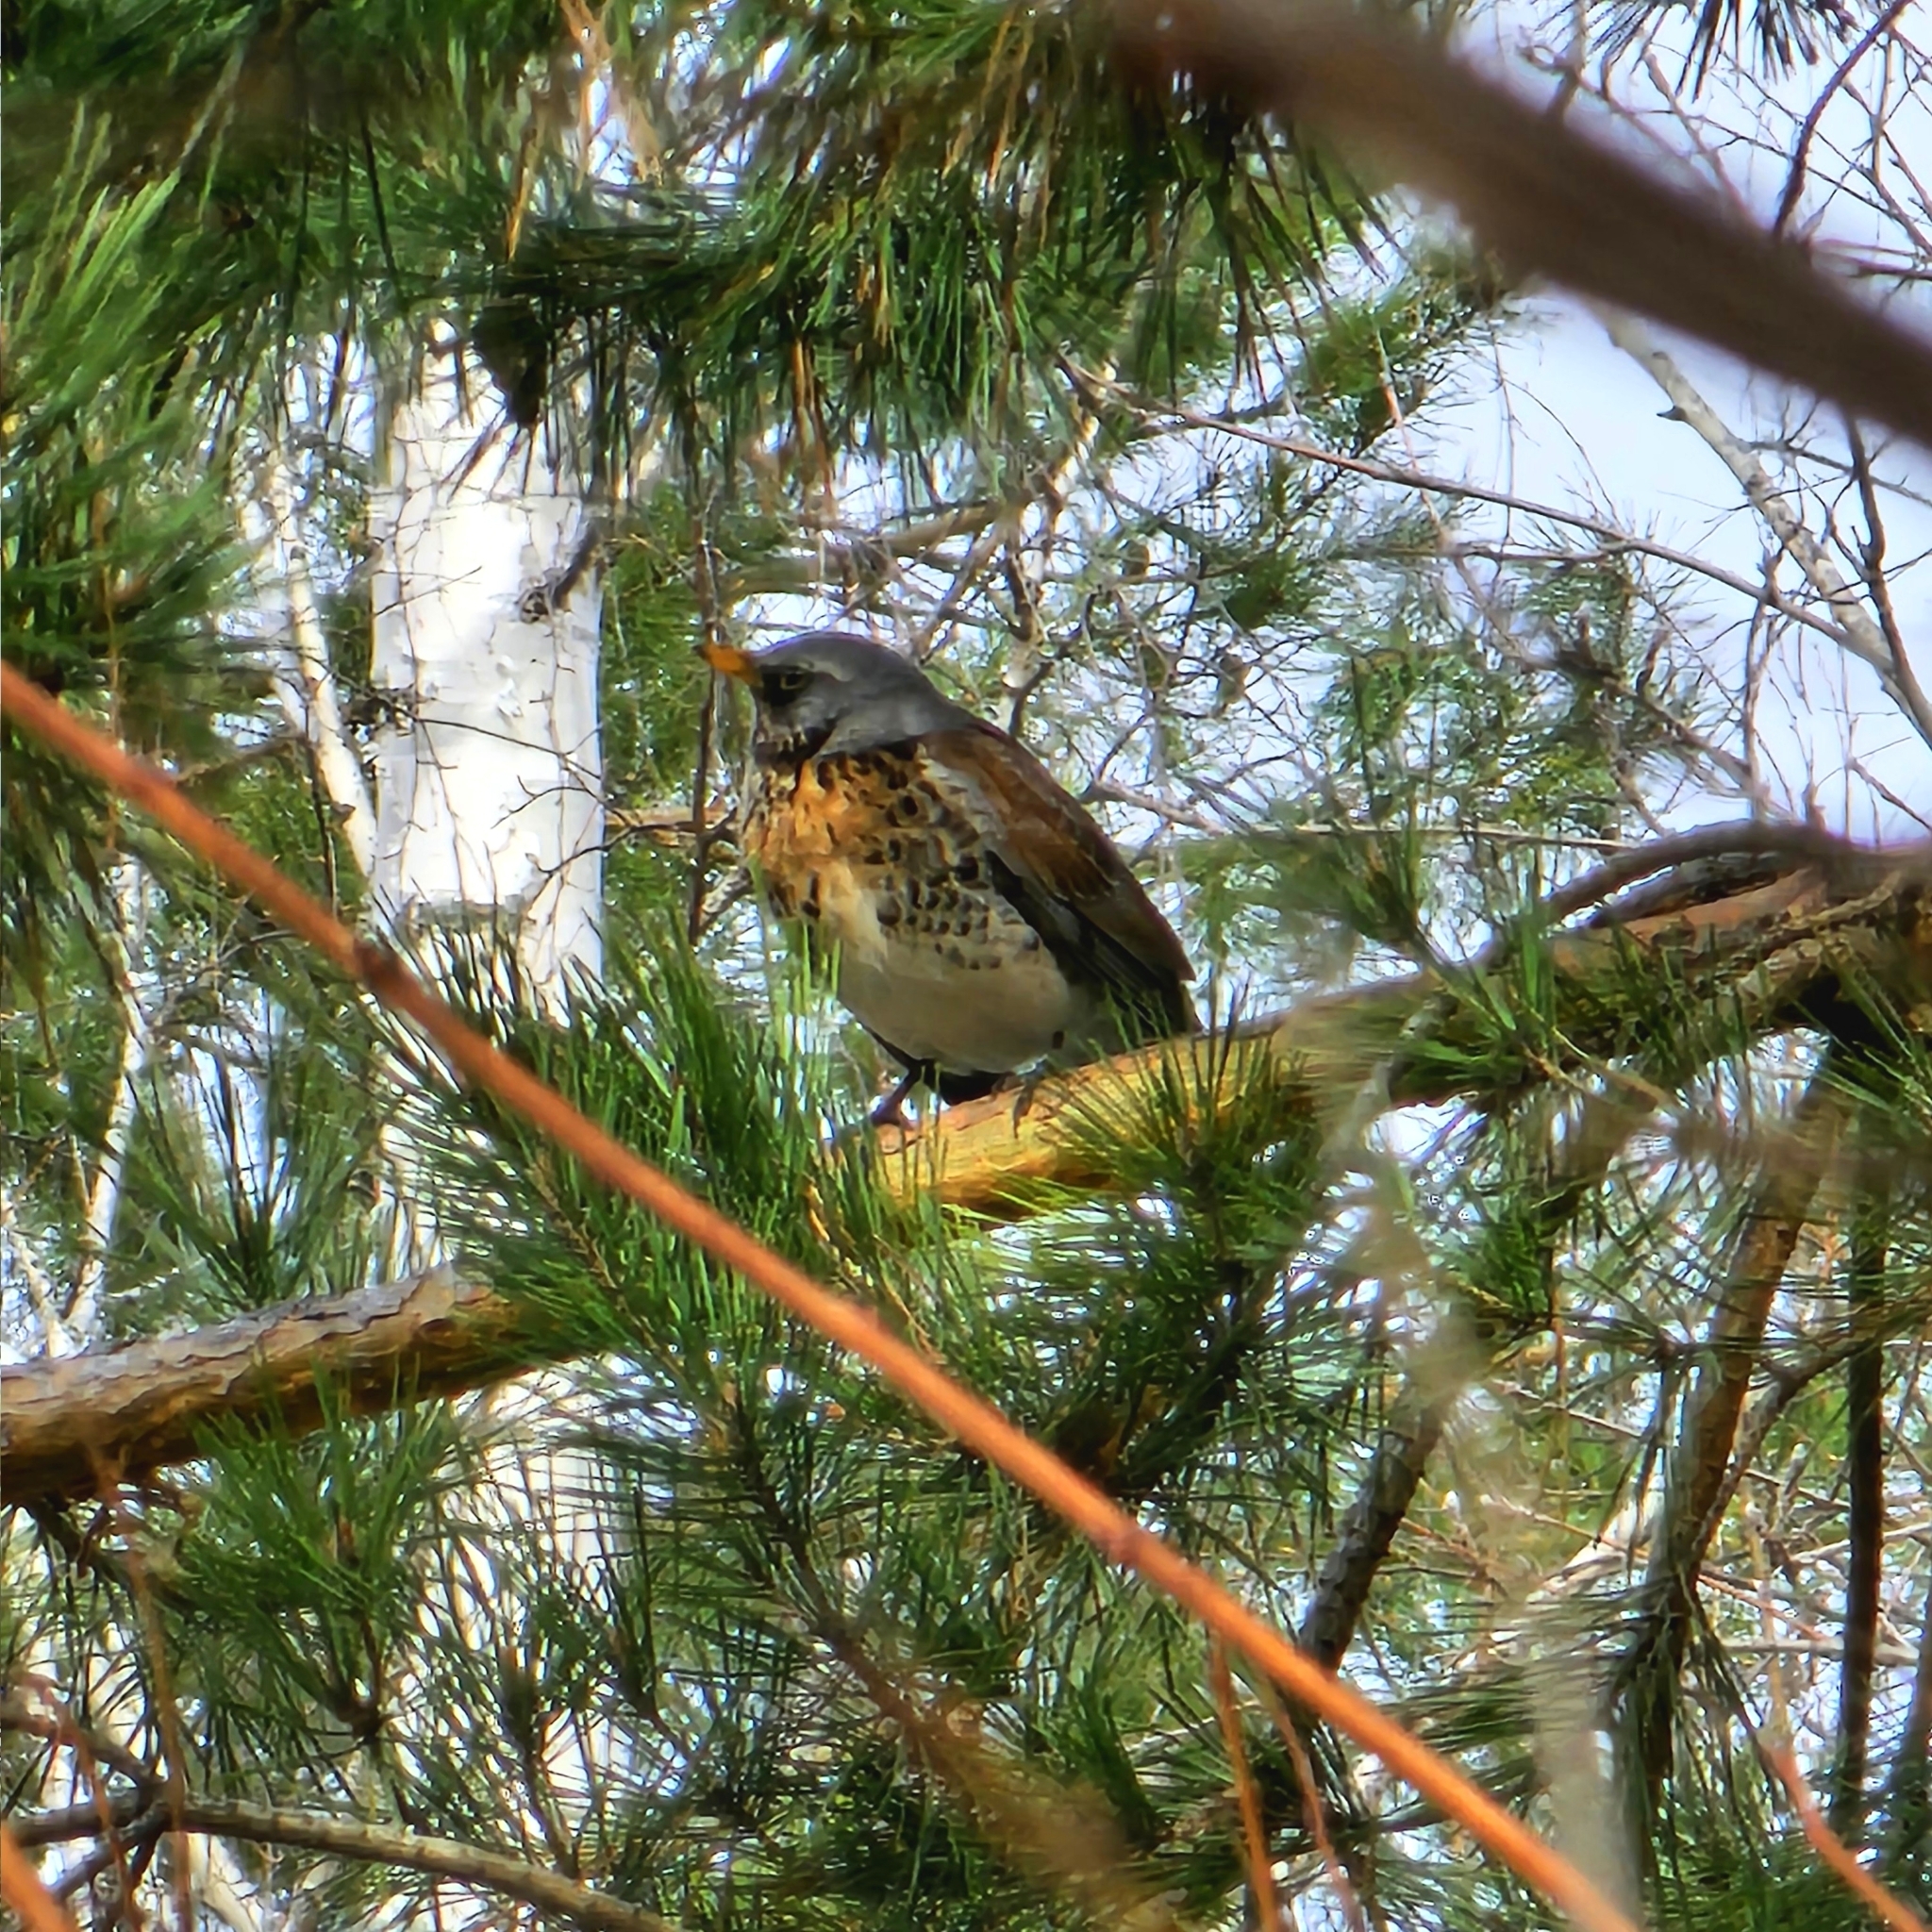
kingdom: Animalia
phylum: Chordata
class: Aves
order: Passeriformes
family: Turdidae
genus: Turdus
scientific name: Turdus pilaris
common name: Fieldfare
